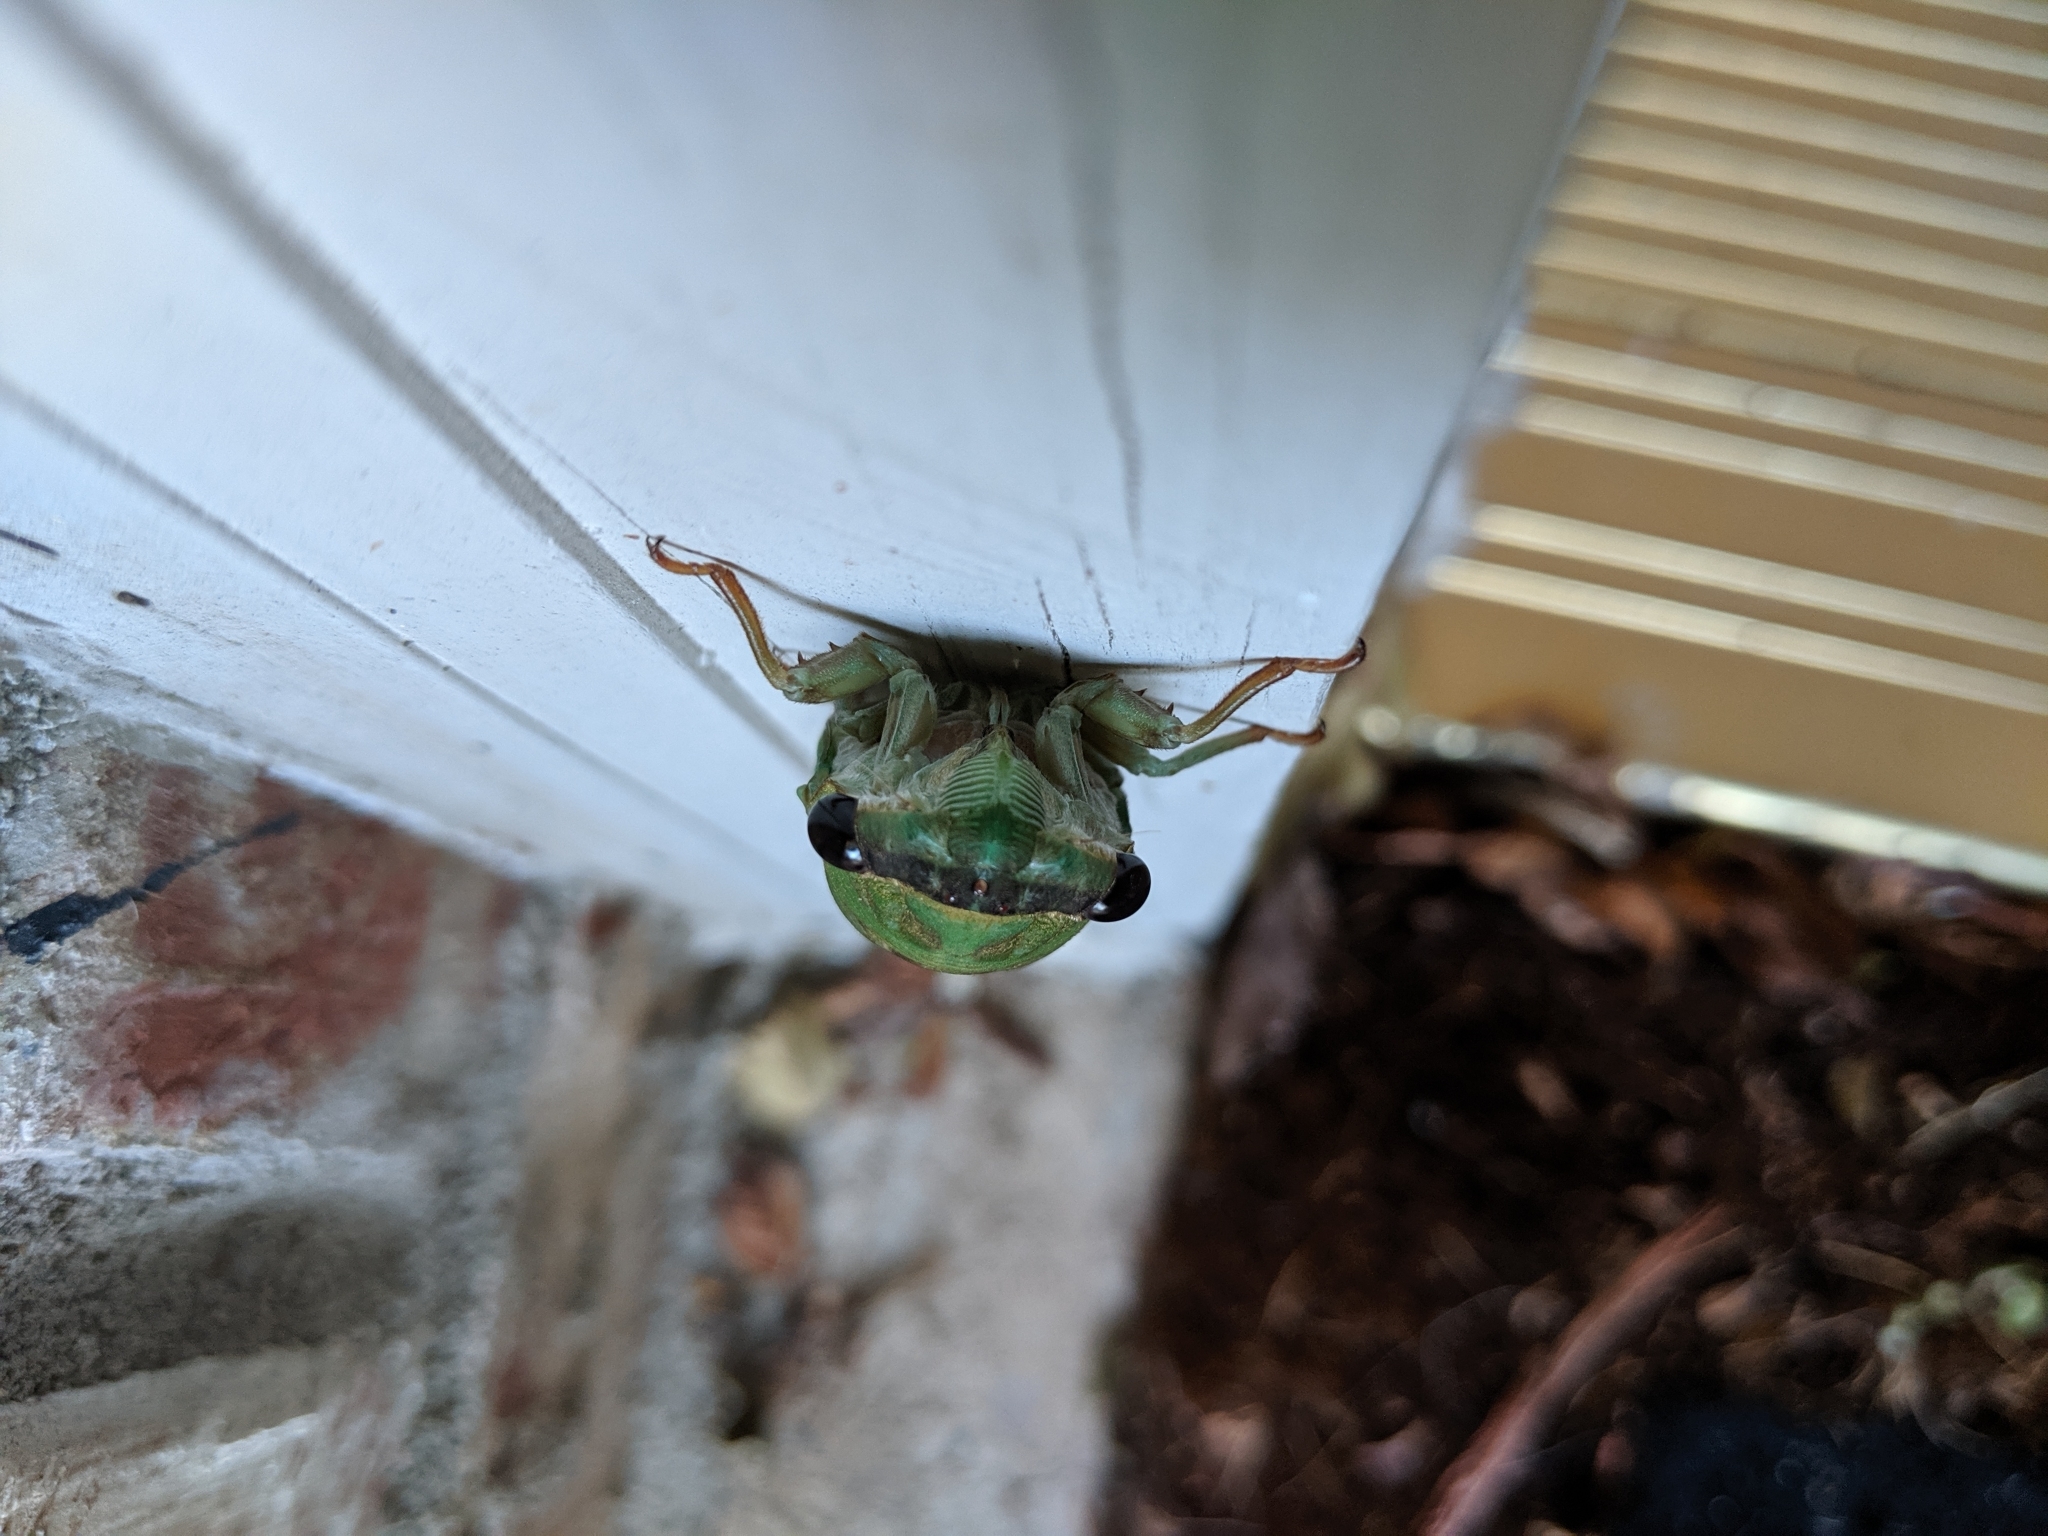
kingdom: Animalia
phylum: Arthropoda
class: Insecta
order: Hemiptera
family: Cicadidae
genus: Neotibicen
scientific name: Neotibicen superbus
